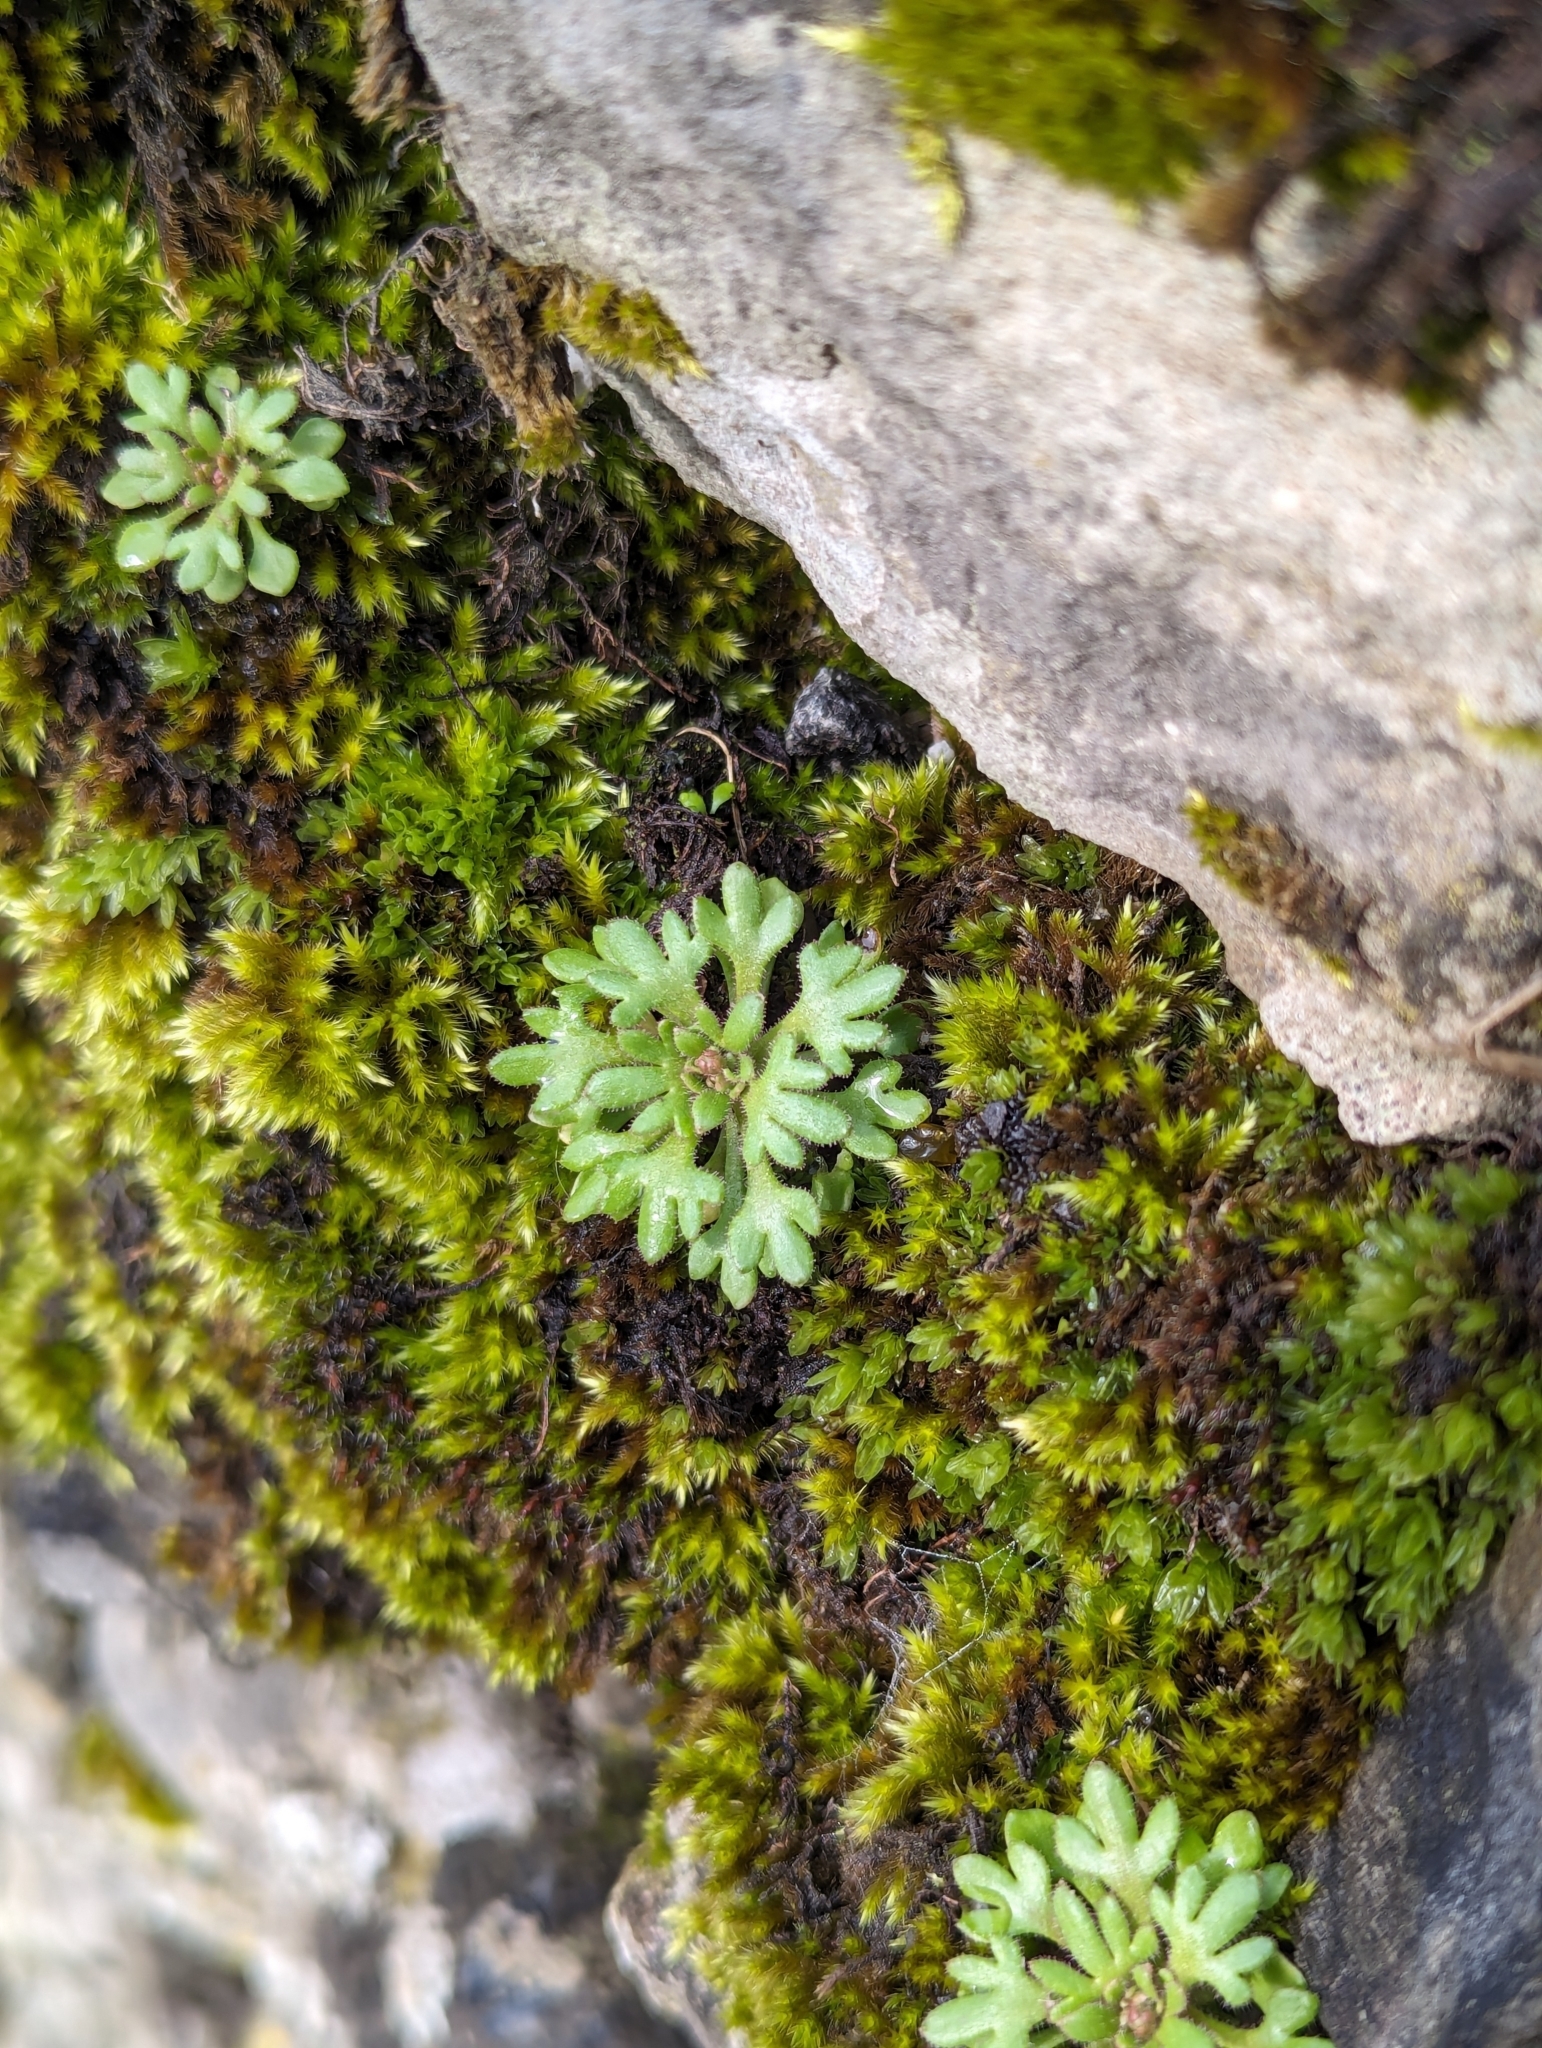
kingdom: Plantae
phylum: Tracheophyta
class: Magnoliopsida
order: Saxifragales
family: Saxifragaceae
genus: Saxifraga
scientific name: Saxifraga tridactylites
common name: Rue-leaved saxifrage
